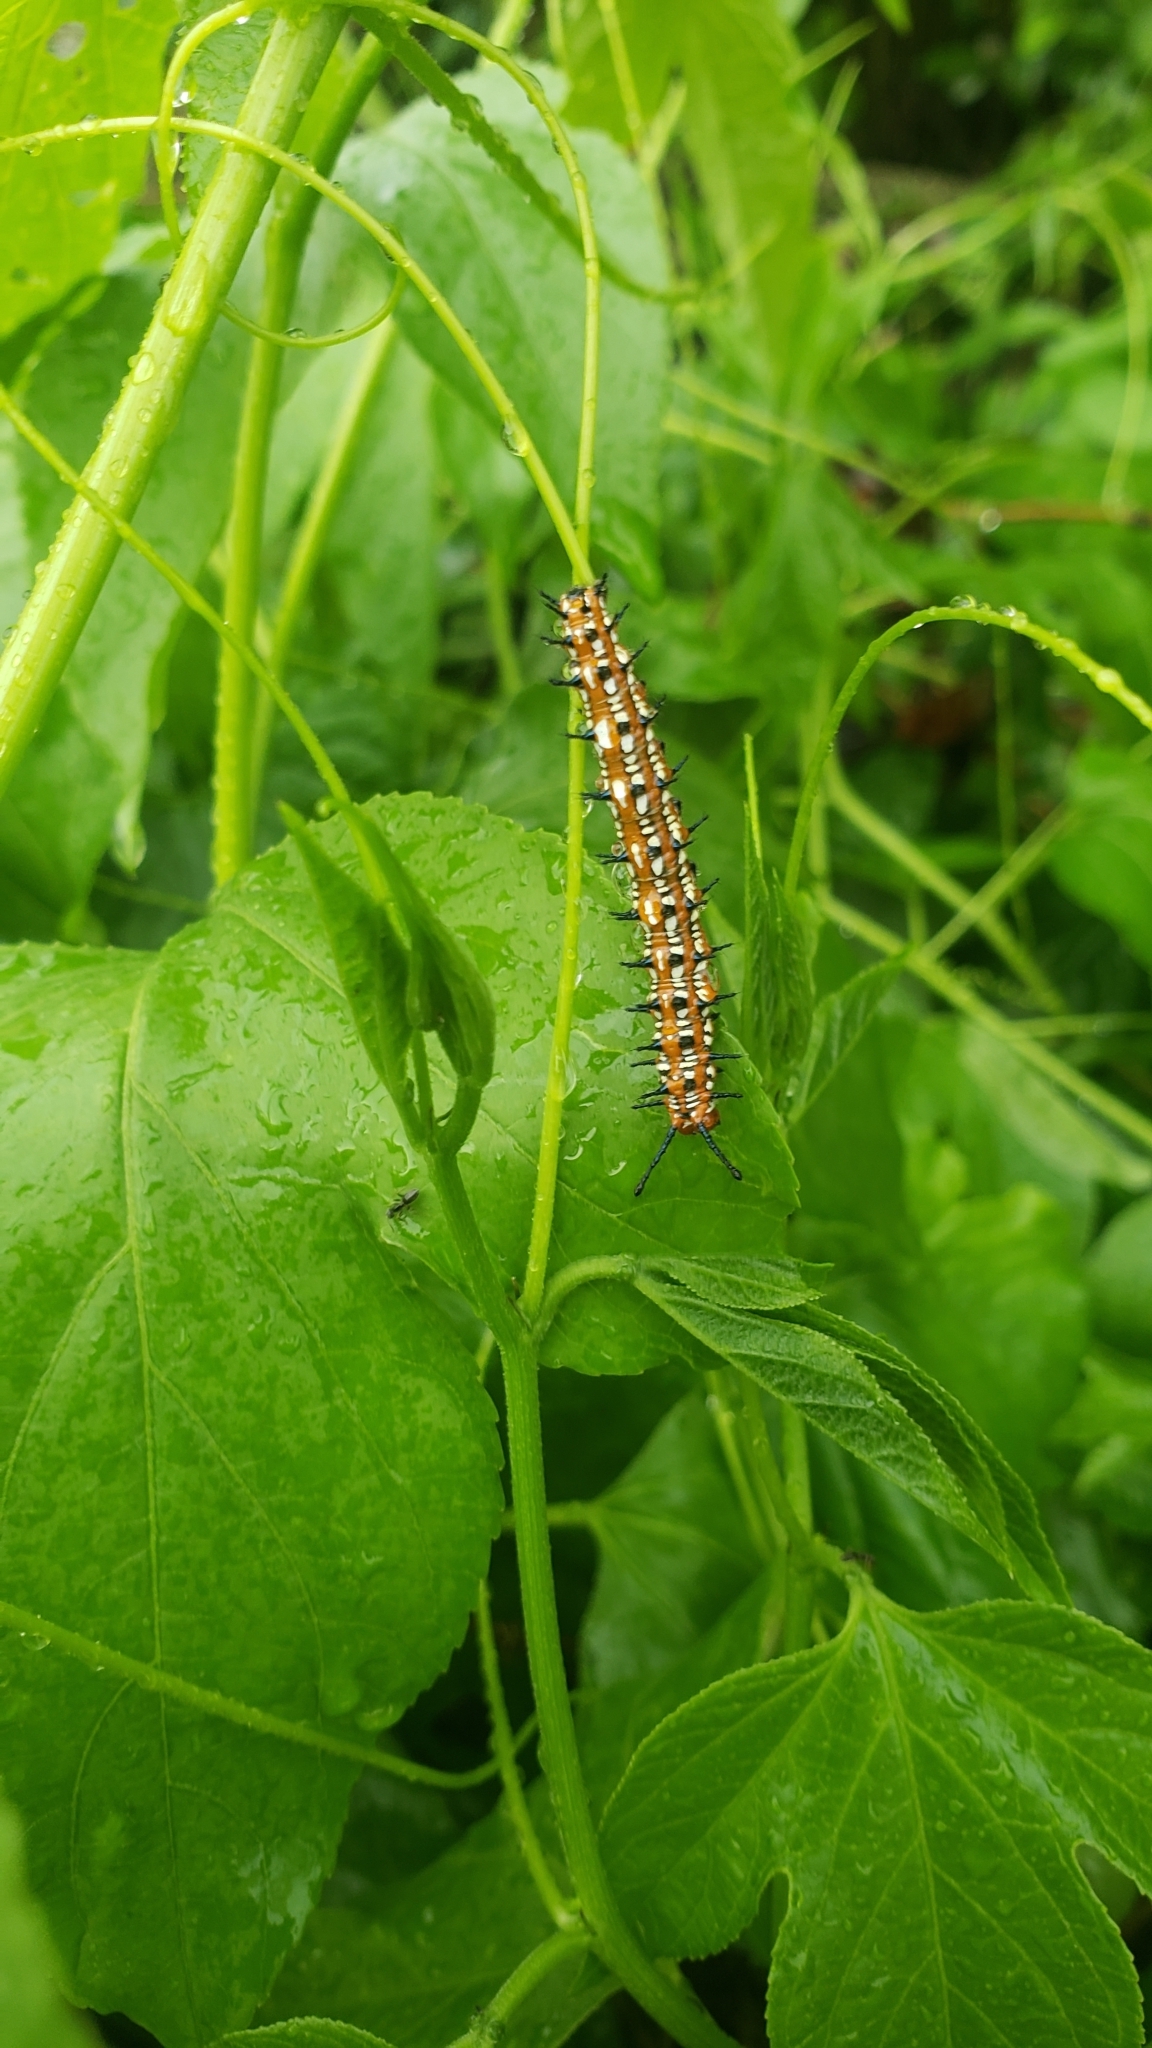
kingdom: Animalia
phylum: Arthropoda
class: Insecta
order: Lepidoptera
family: Nymphalidae
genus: Euptoieta
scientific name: Euptoieta claudia
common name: Variegated fritillary
